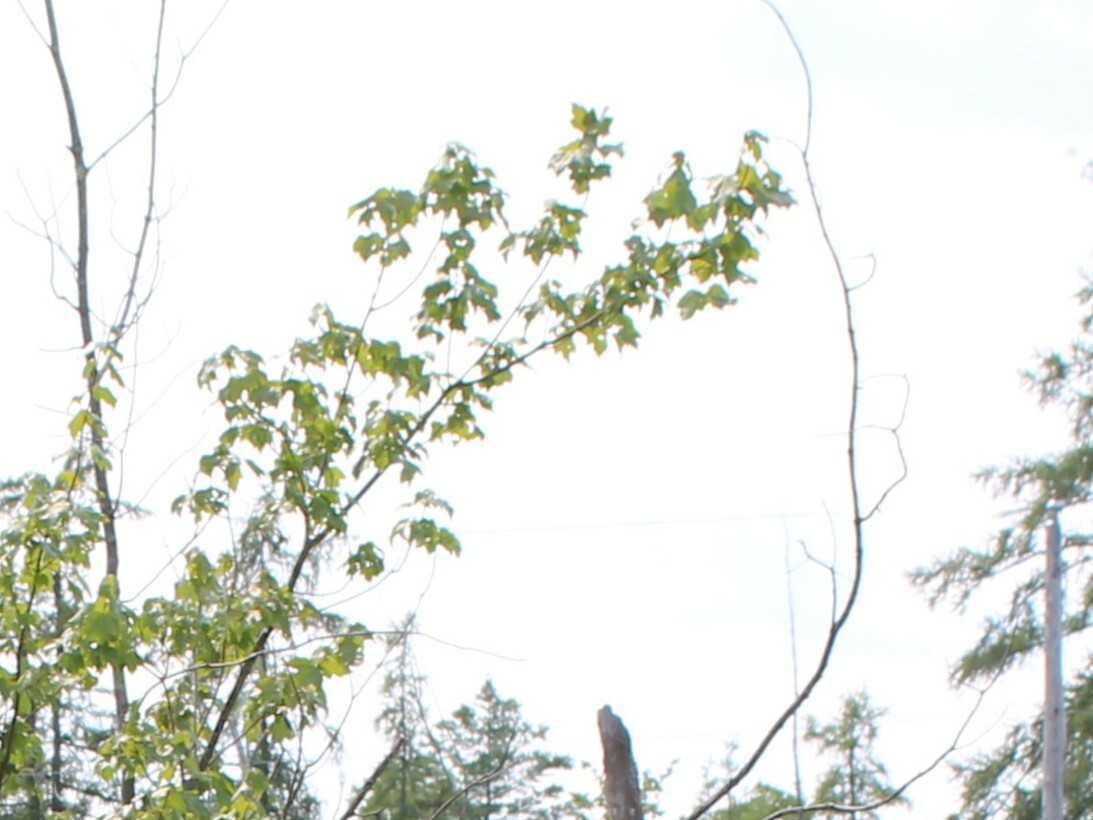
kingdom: Plantae
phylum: Tracheophyta
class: Magnoliopsida
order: Sapindales
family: Sapindaceae
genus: Acer
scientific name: Acer rubrum
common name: Red maple
